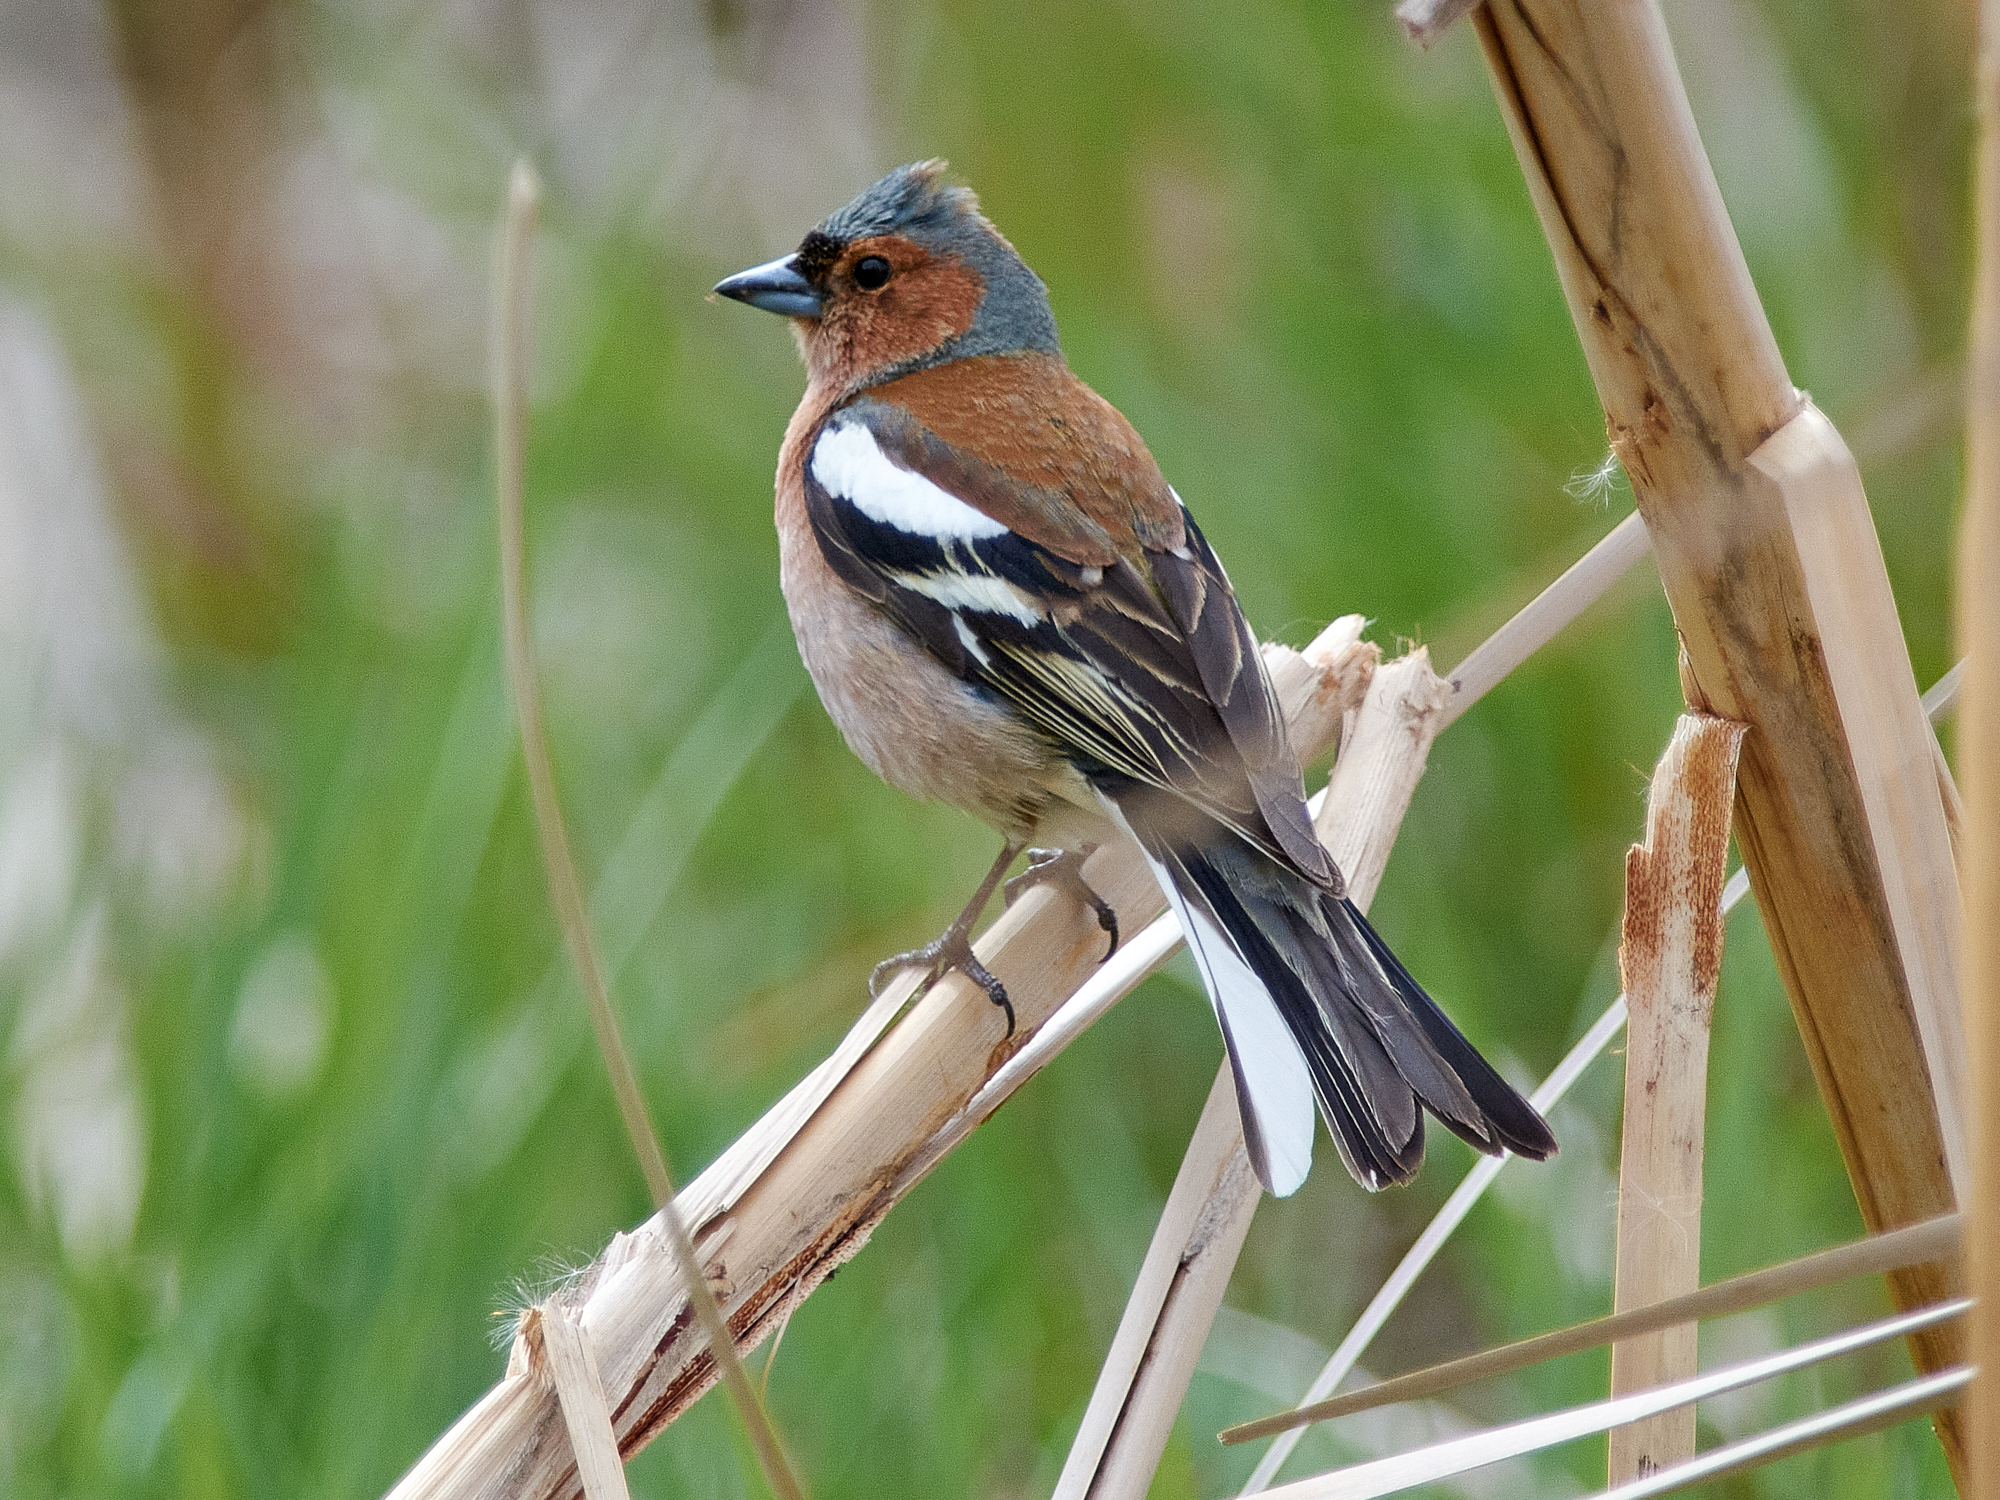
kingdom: Animalia
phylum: Chordata
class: Aves
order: Passeriformes
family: Fringillidae
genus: Fringilla
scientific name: Fringilla coelebs
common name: Common chaffinch
